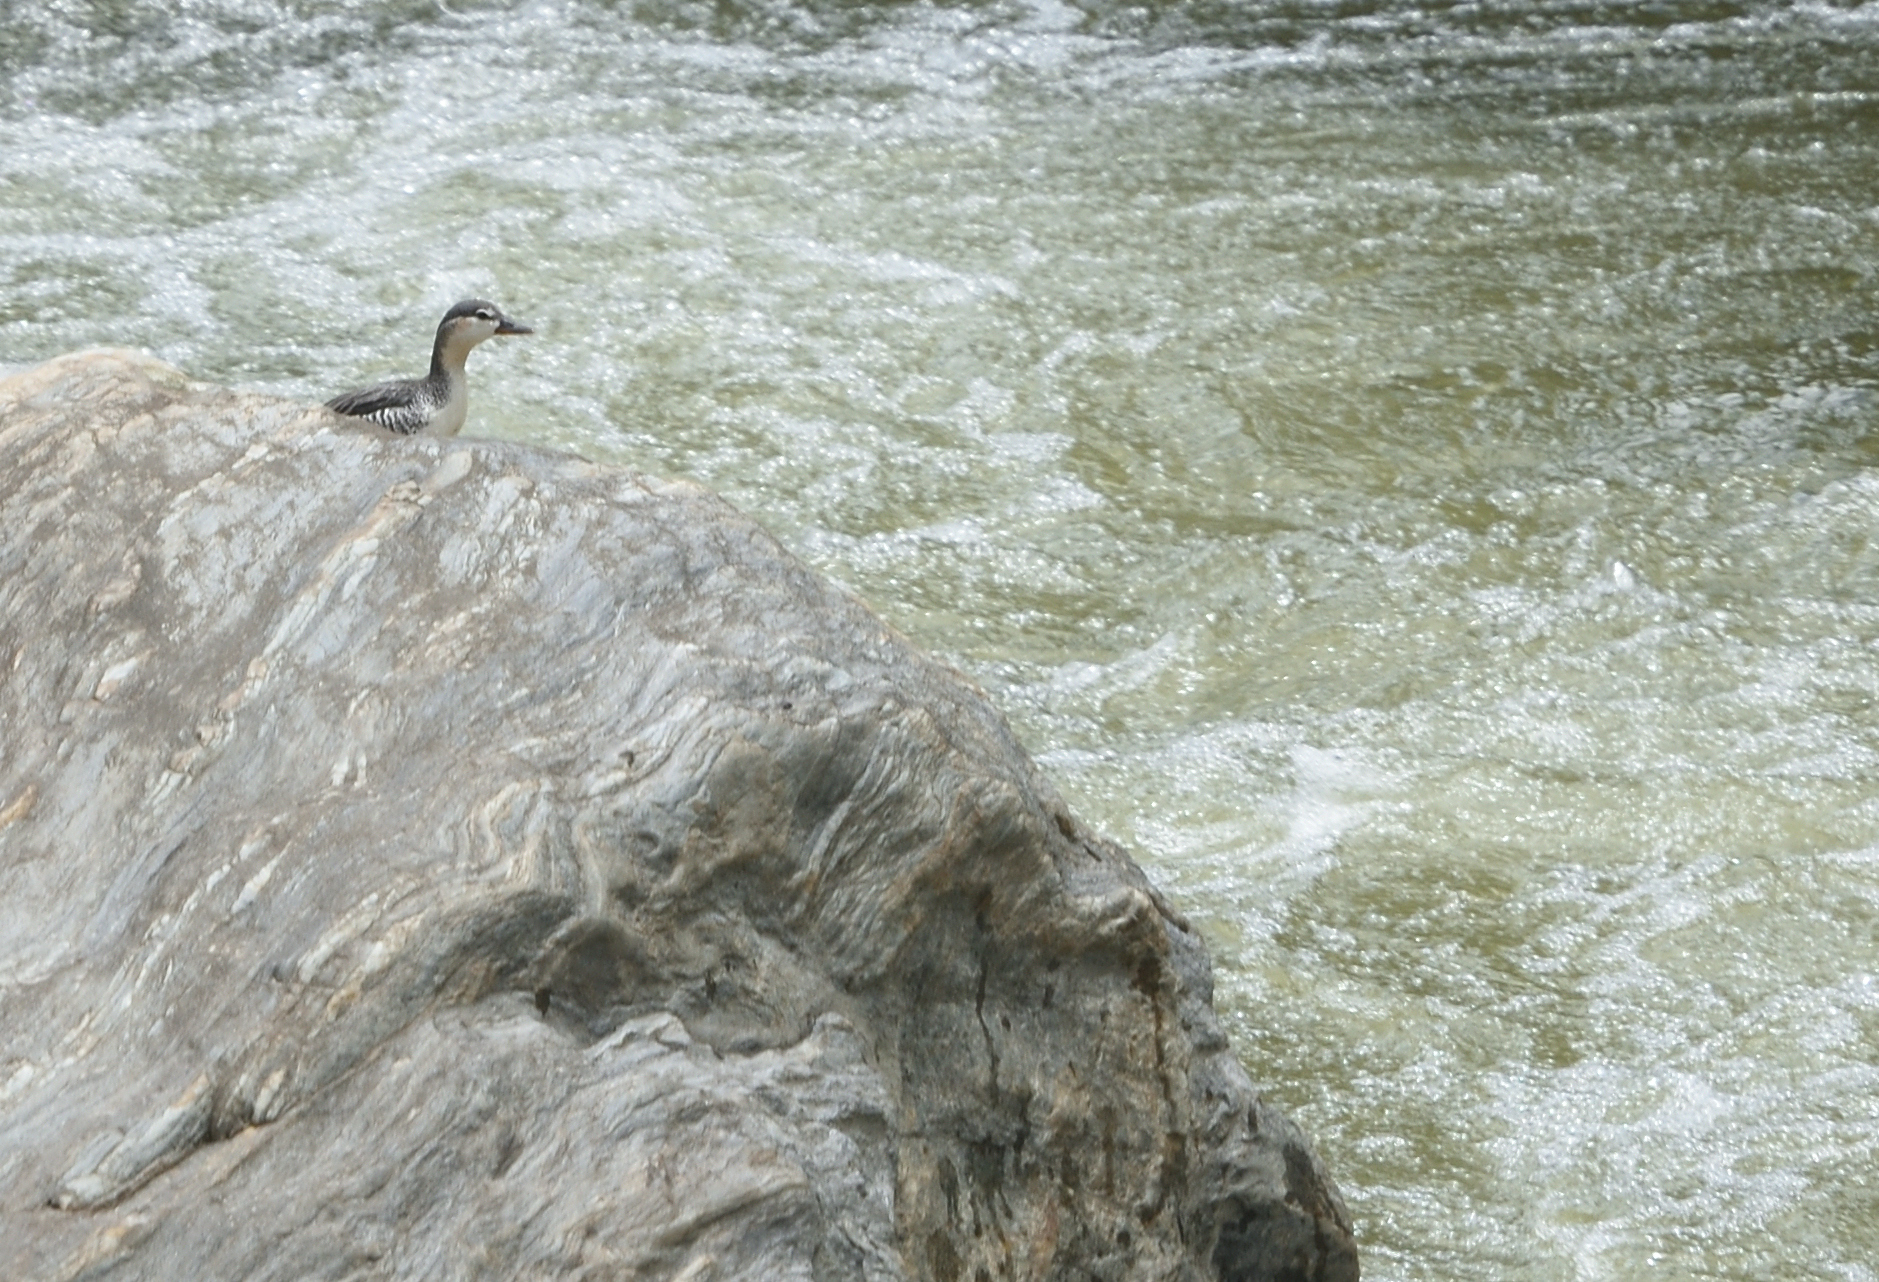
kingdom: Animalia
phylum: Chordata
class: Aves
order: Anseriformes
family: Anatidae
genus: Merganetta
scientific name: Merganetta armata
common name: Torrent duck
